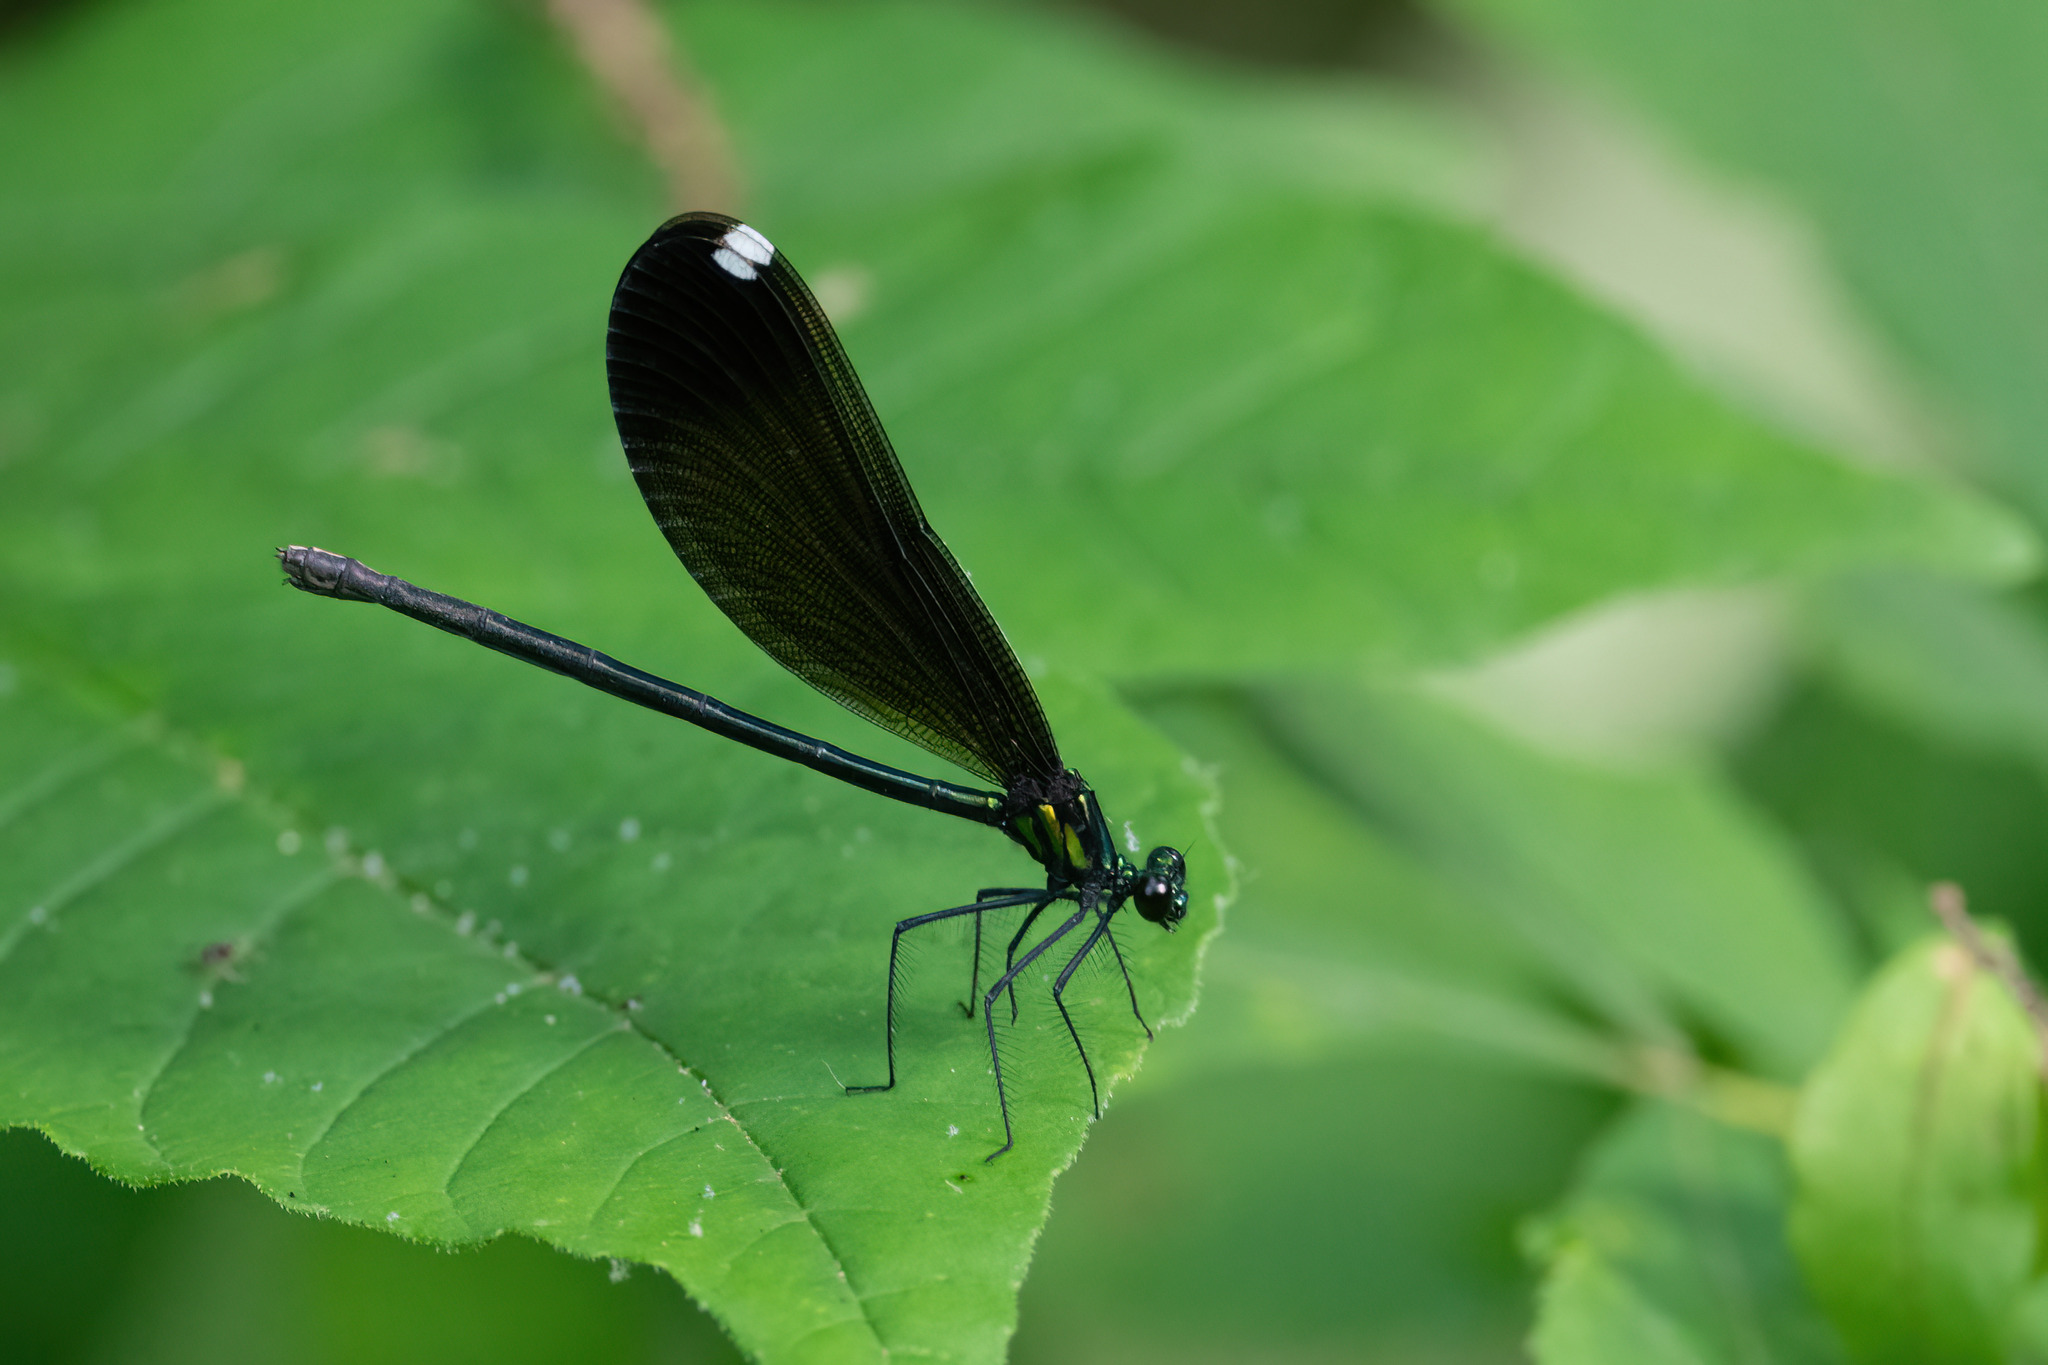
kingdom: Animalia
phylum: Arthropoda
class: Insecta
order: Odonata
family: Calopterygidae
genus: Calopteryx
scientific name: Calopteryx maculata
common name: Ebony jewelwing
